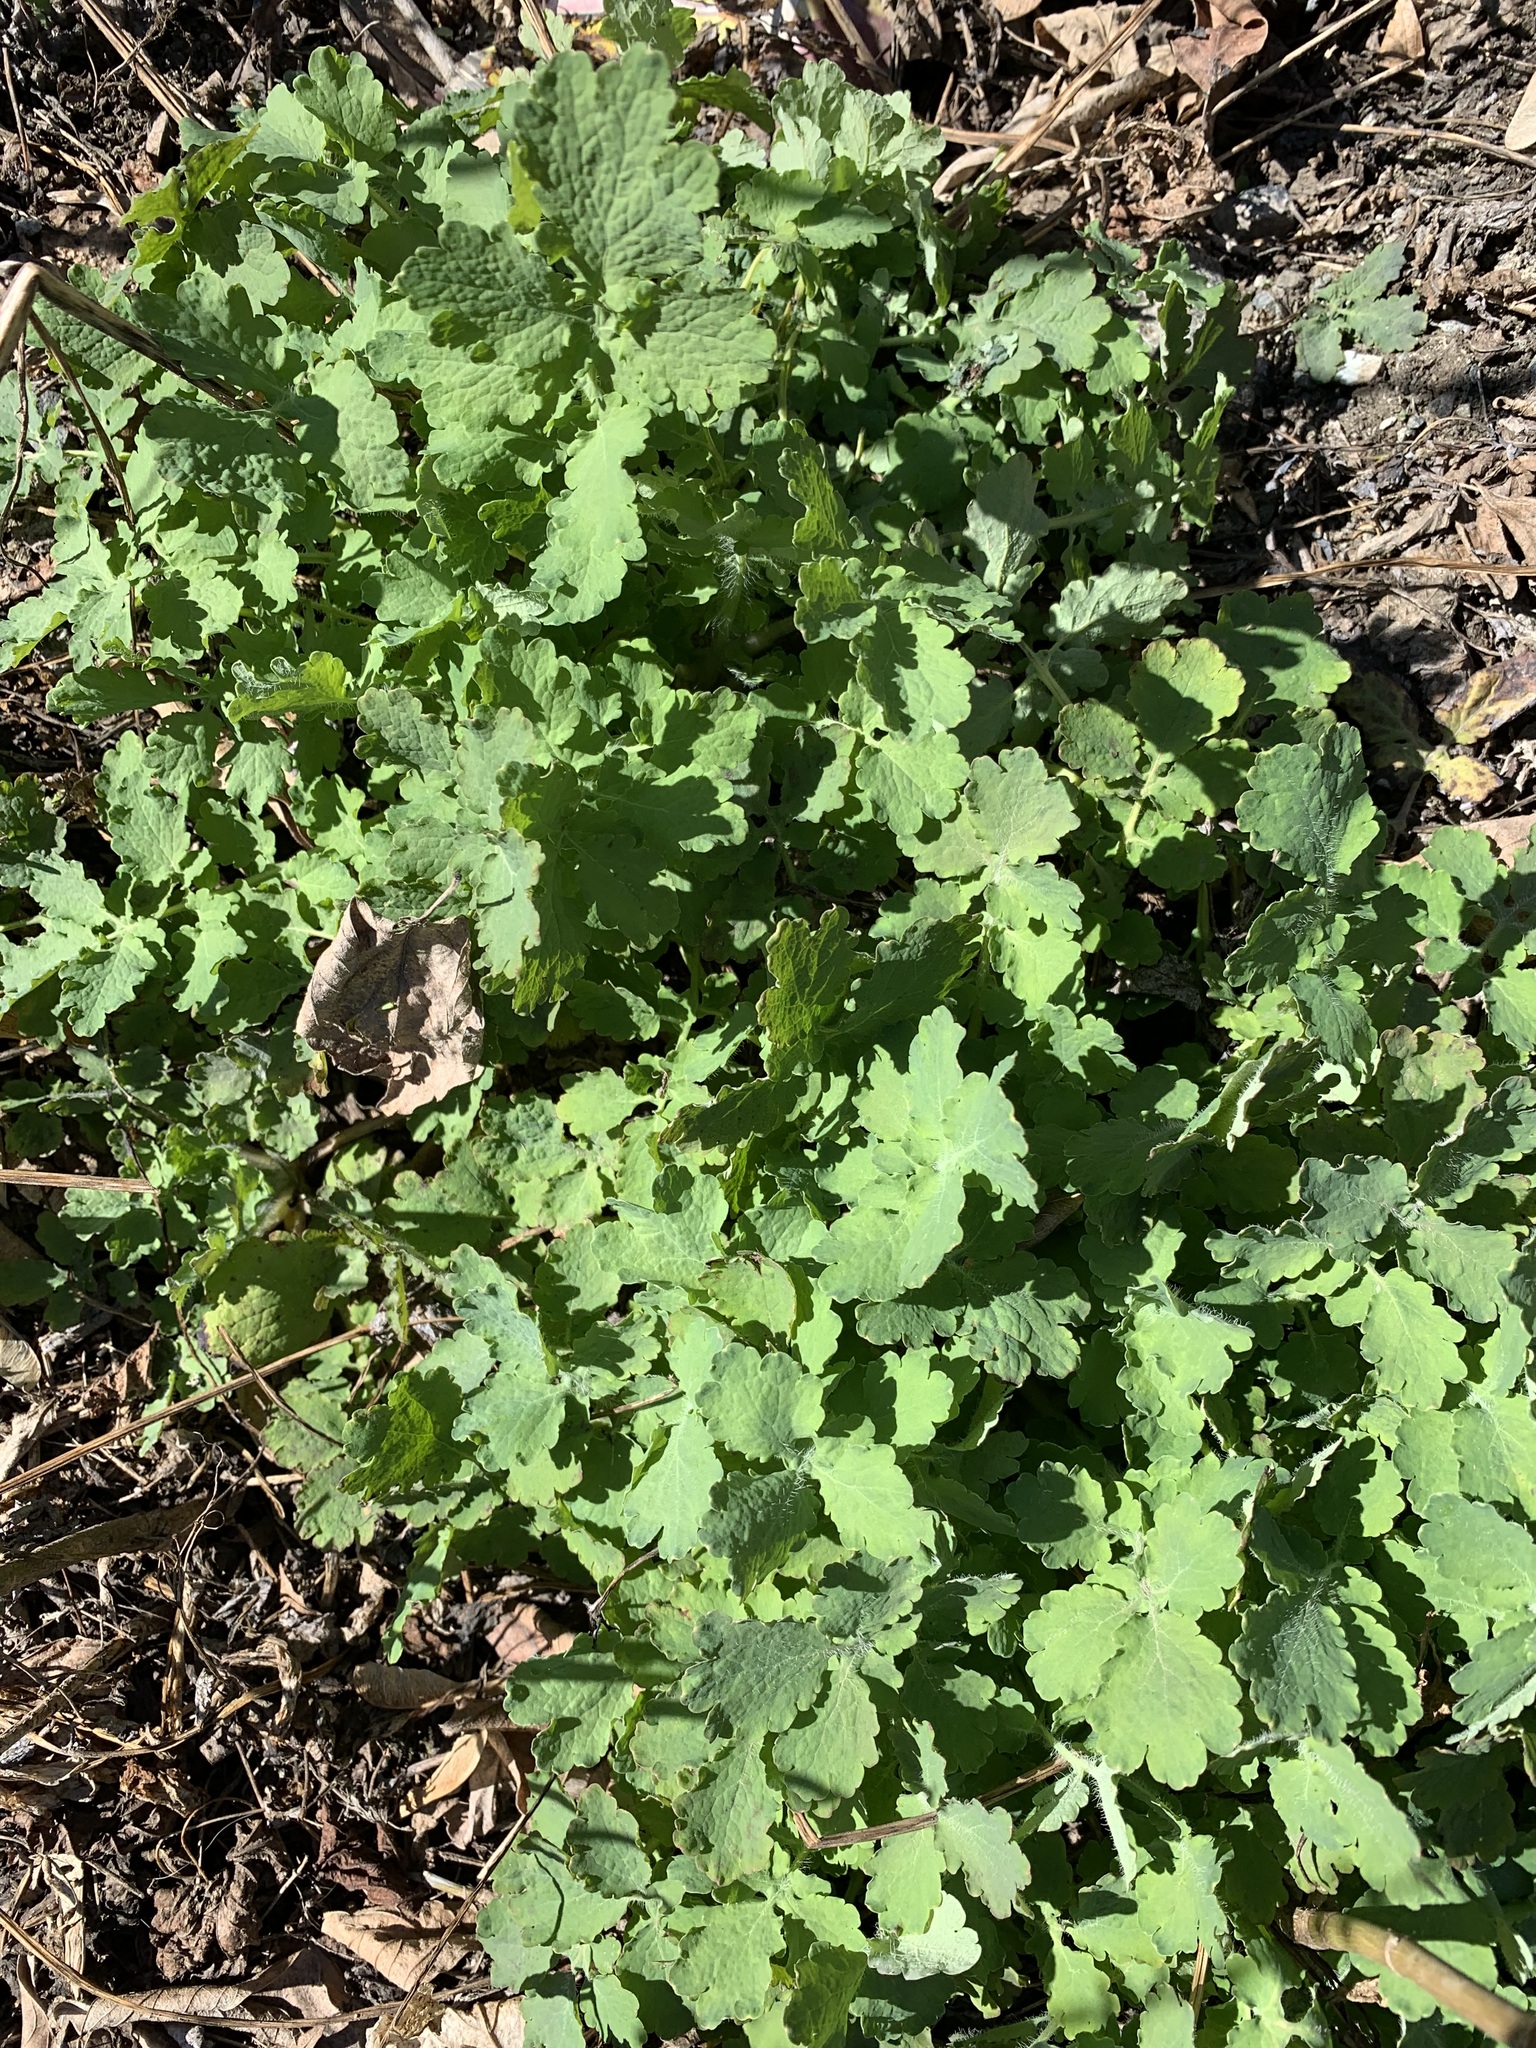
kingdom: Plantae
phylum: Tracheophyta
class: Magnoliopsida
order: Ranunculales
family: Papaveraceae
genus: Chelidonium
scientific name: Chelidonium majus
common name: Greater celandine
